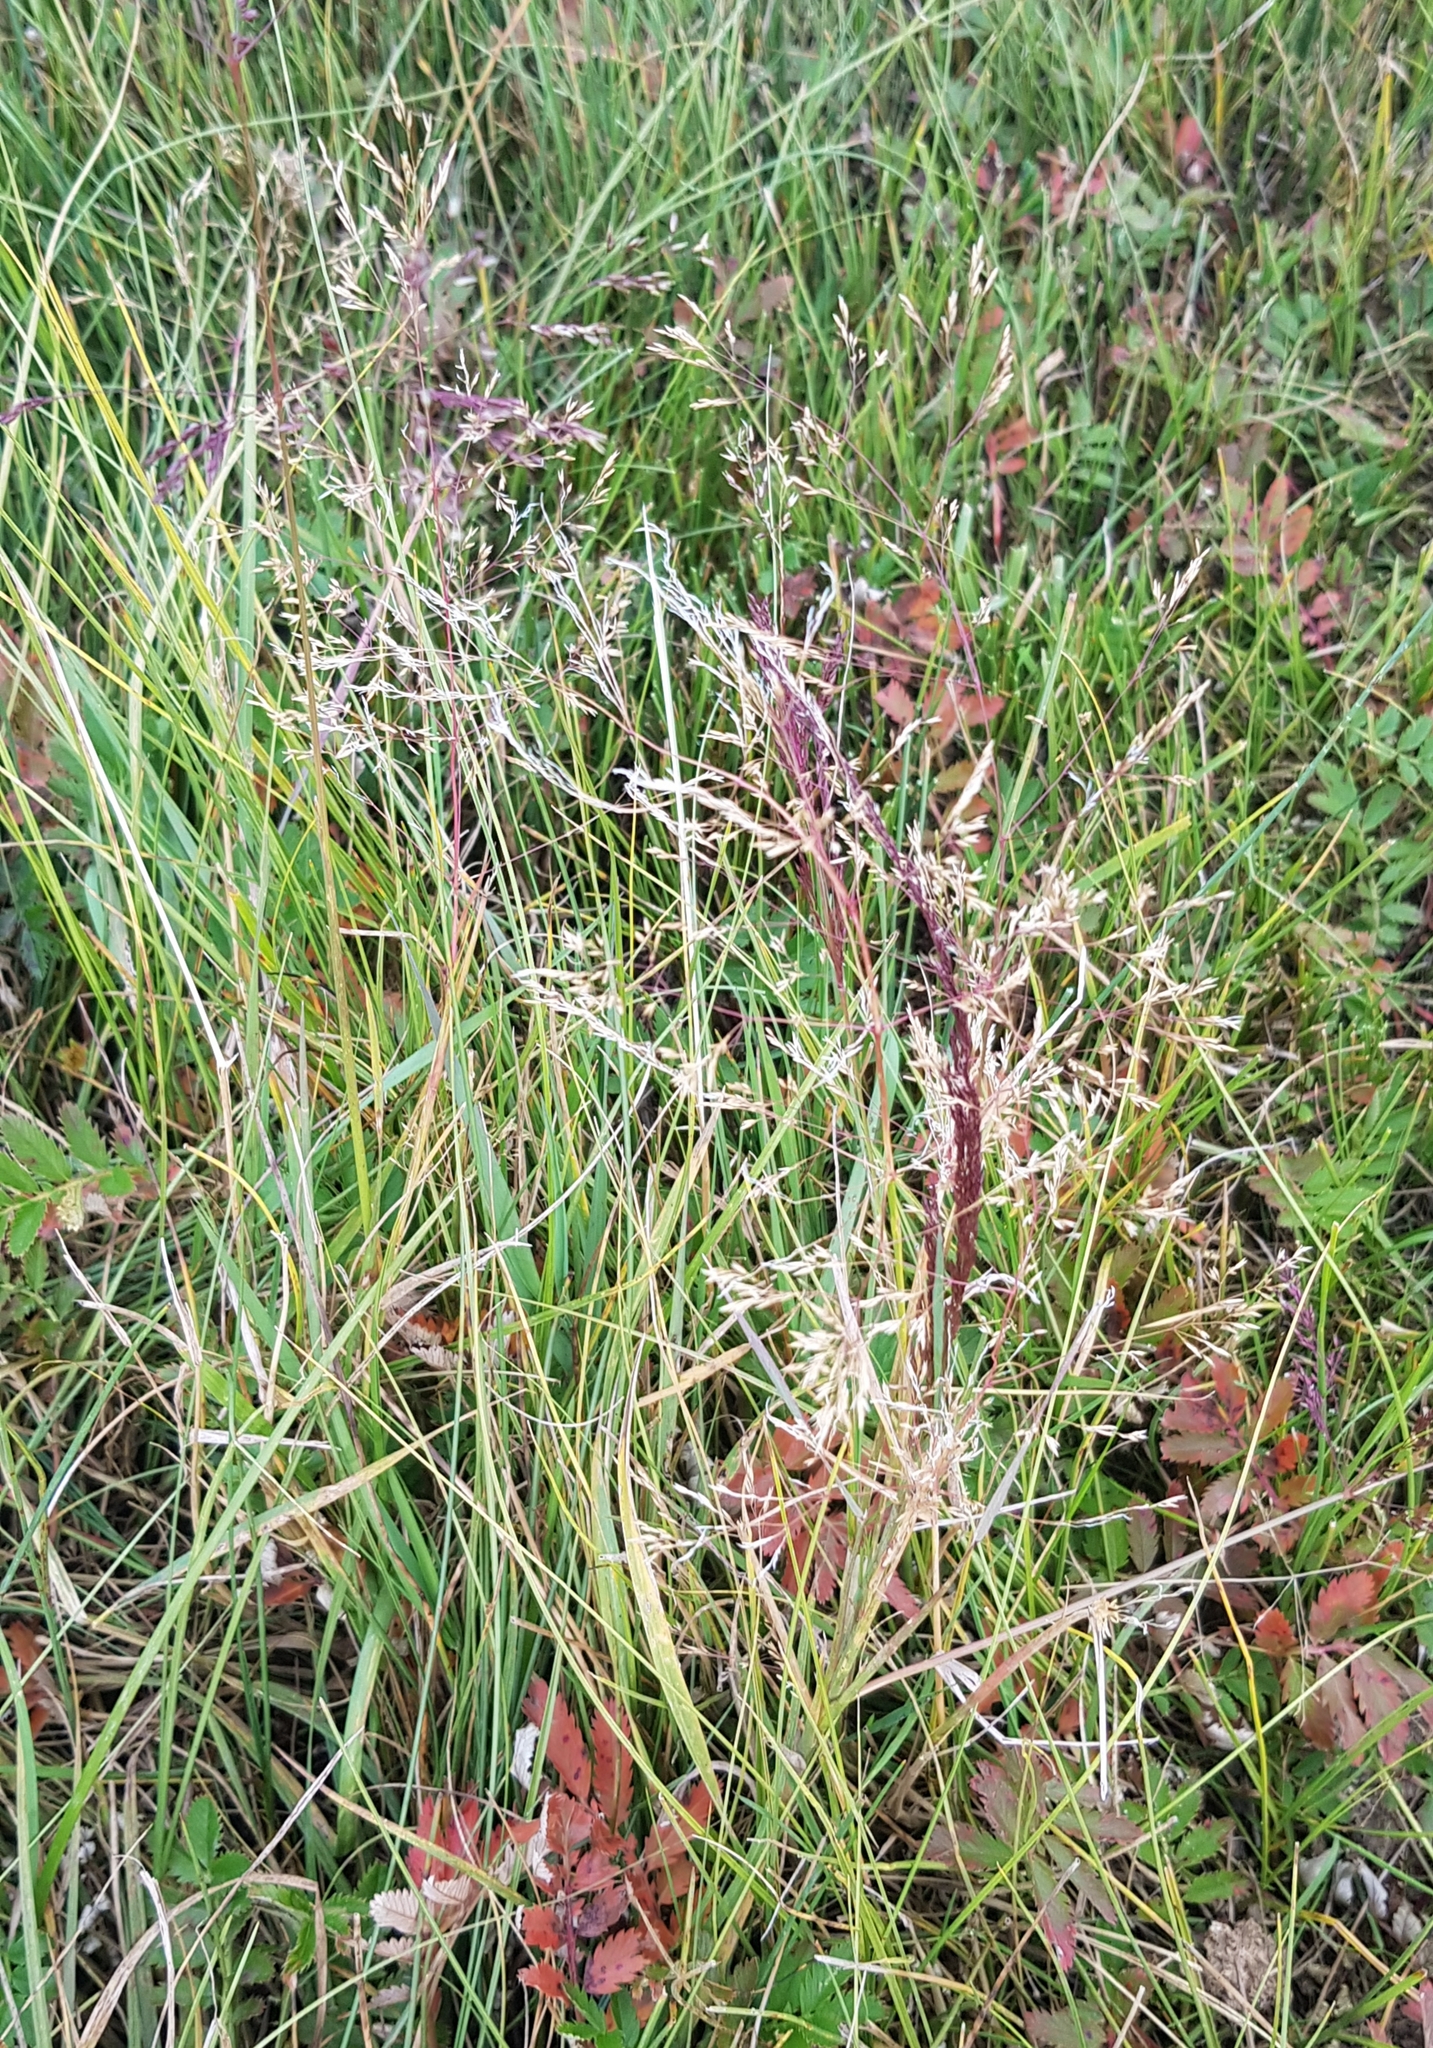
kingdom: Plantae
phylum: Tracheophyta
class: Liliopsida
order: Poales
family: Poaceae
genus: Poa
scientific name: Poa attenuata
